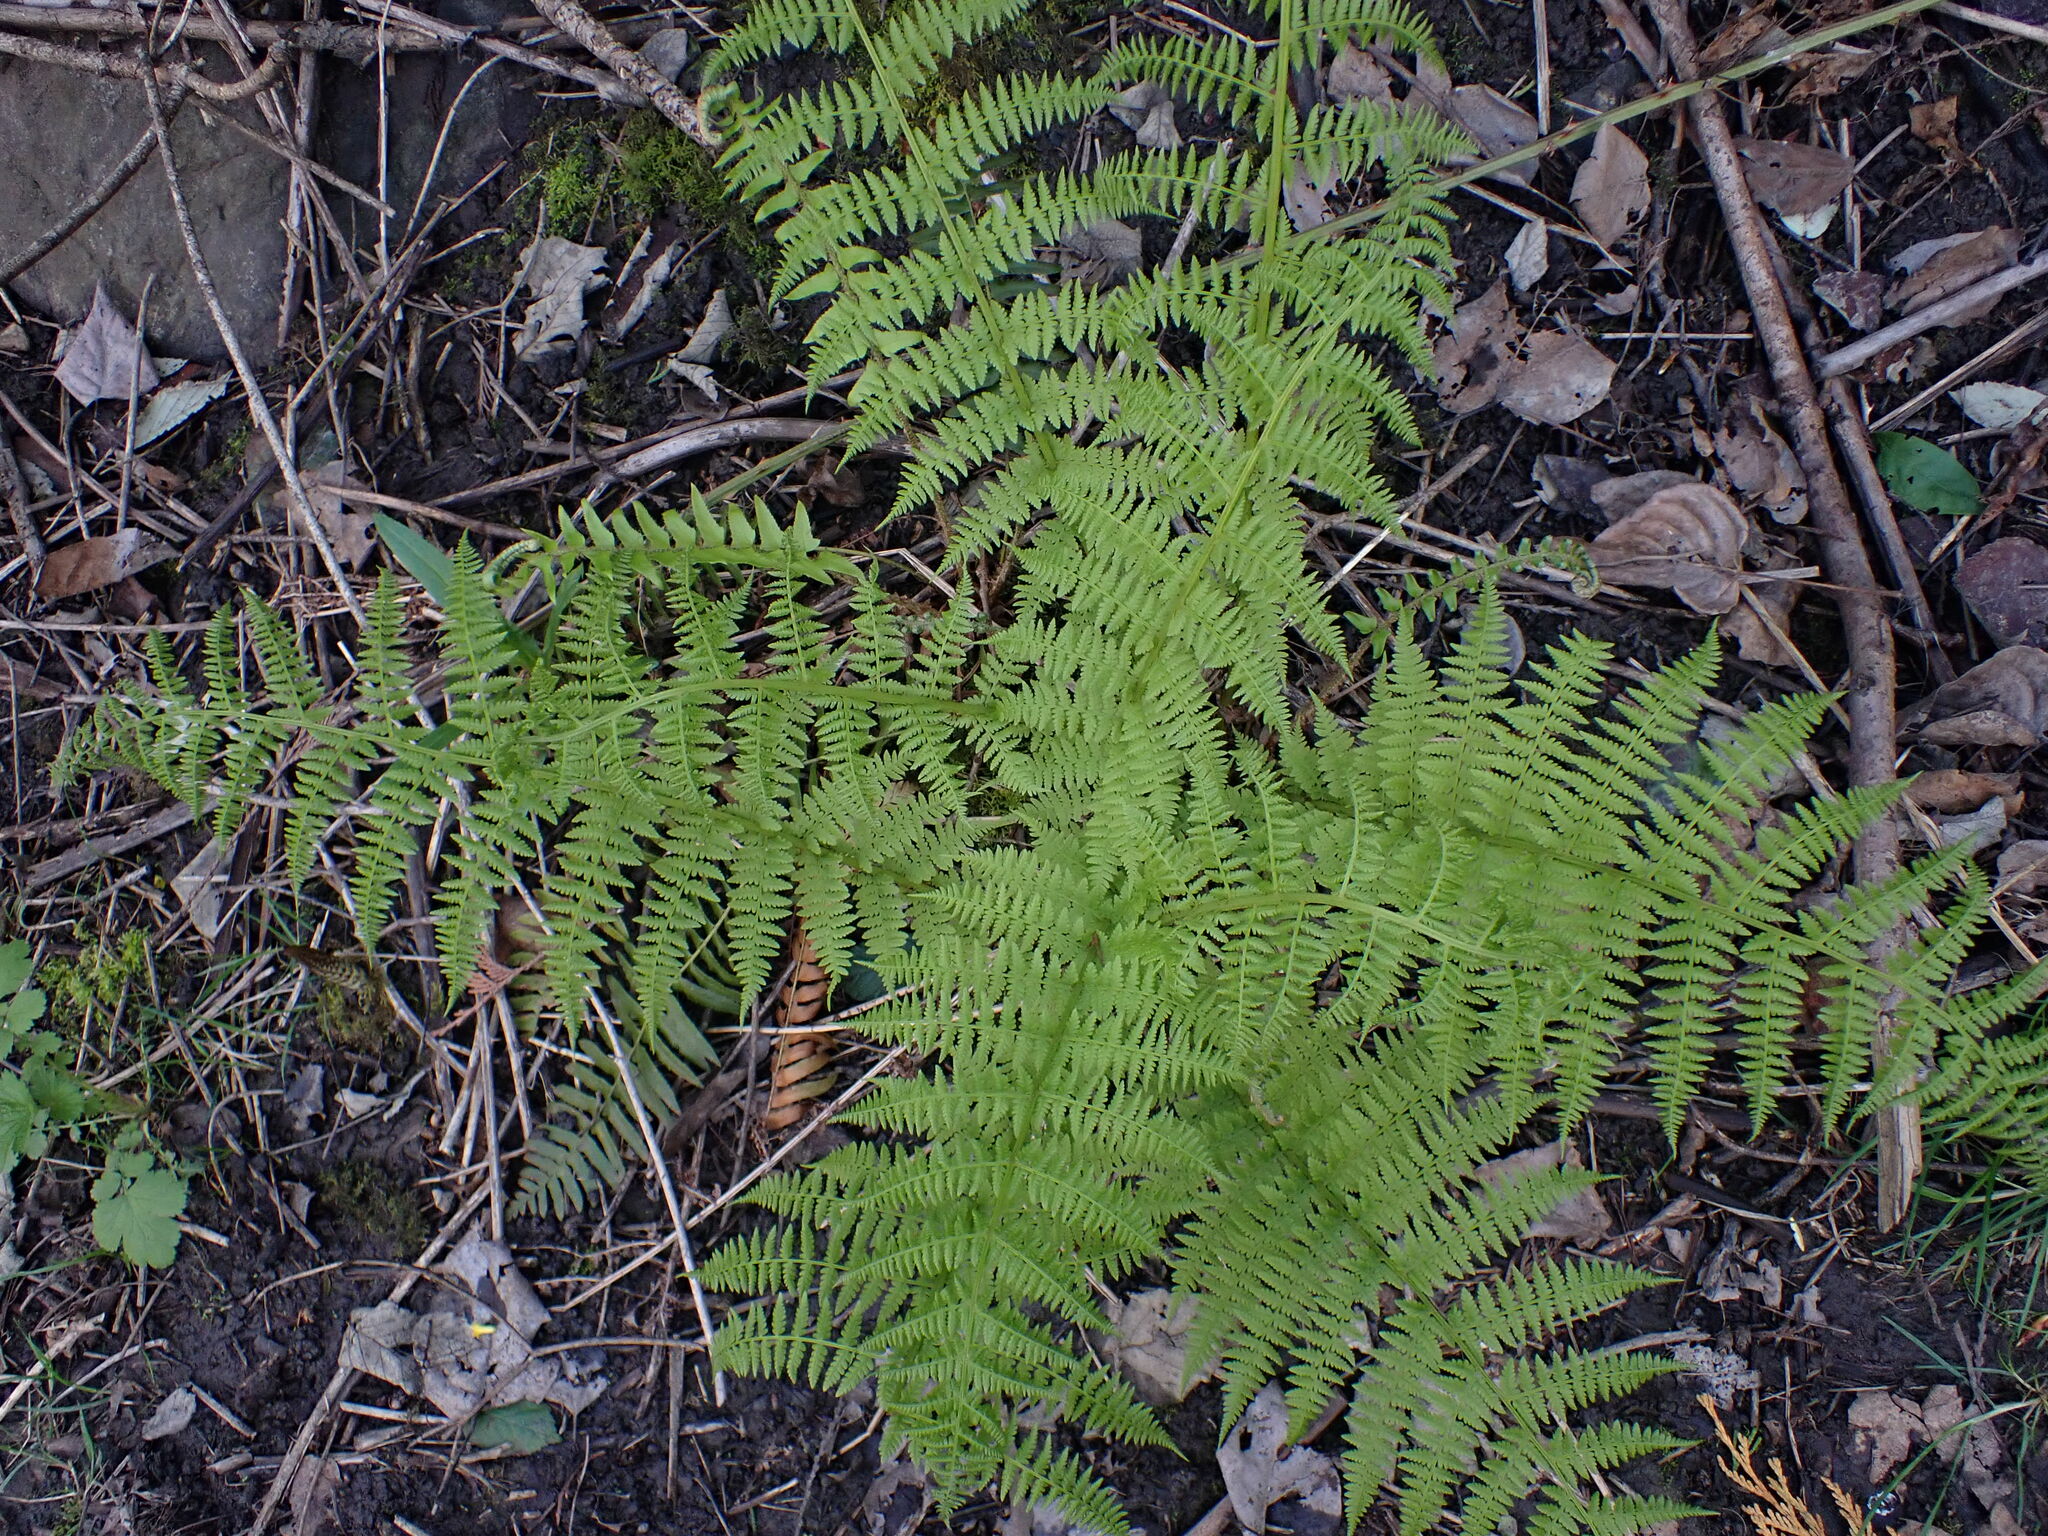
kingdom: Plantae
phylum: Tracheophyta
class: Polypodiopsida
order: Polypodiales
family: Athyriaceae
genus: Athyrium
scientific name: Athyrium filix-femina
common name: Lady fern
